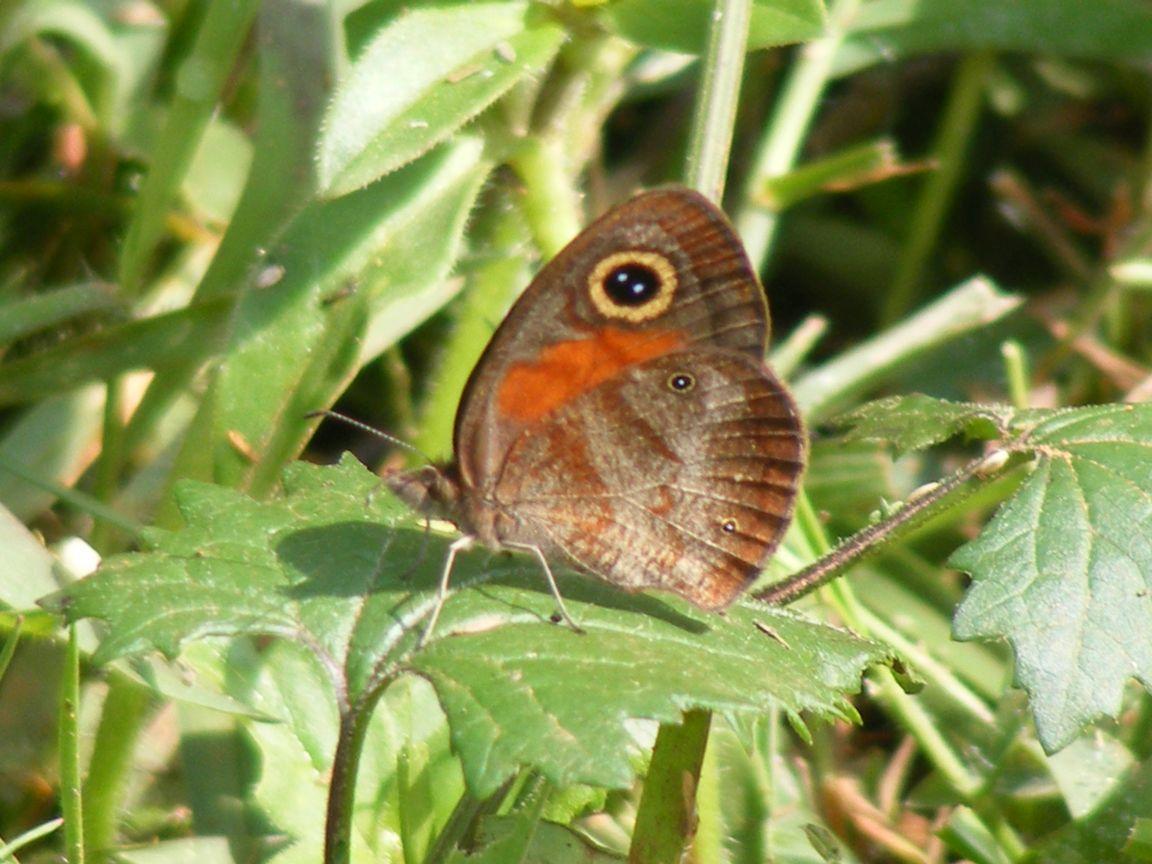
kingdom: Animalia
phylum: Arthropoda
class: Insecta
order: Lepidoptera
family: Nymphalidae
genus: Cassionympha
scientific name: Cassionympha cassius
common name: Rainforest brown
